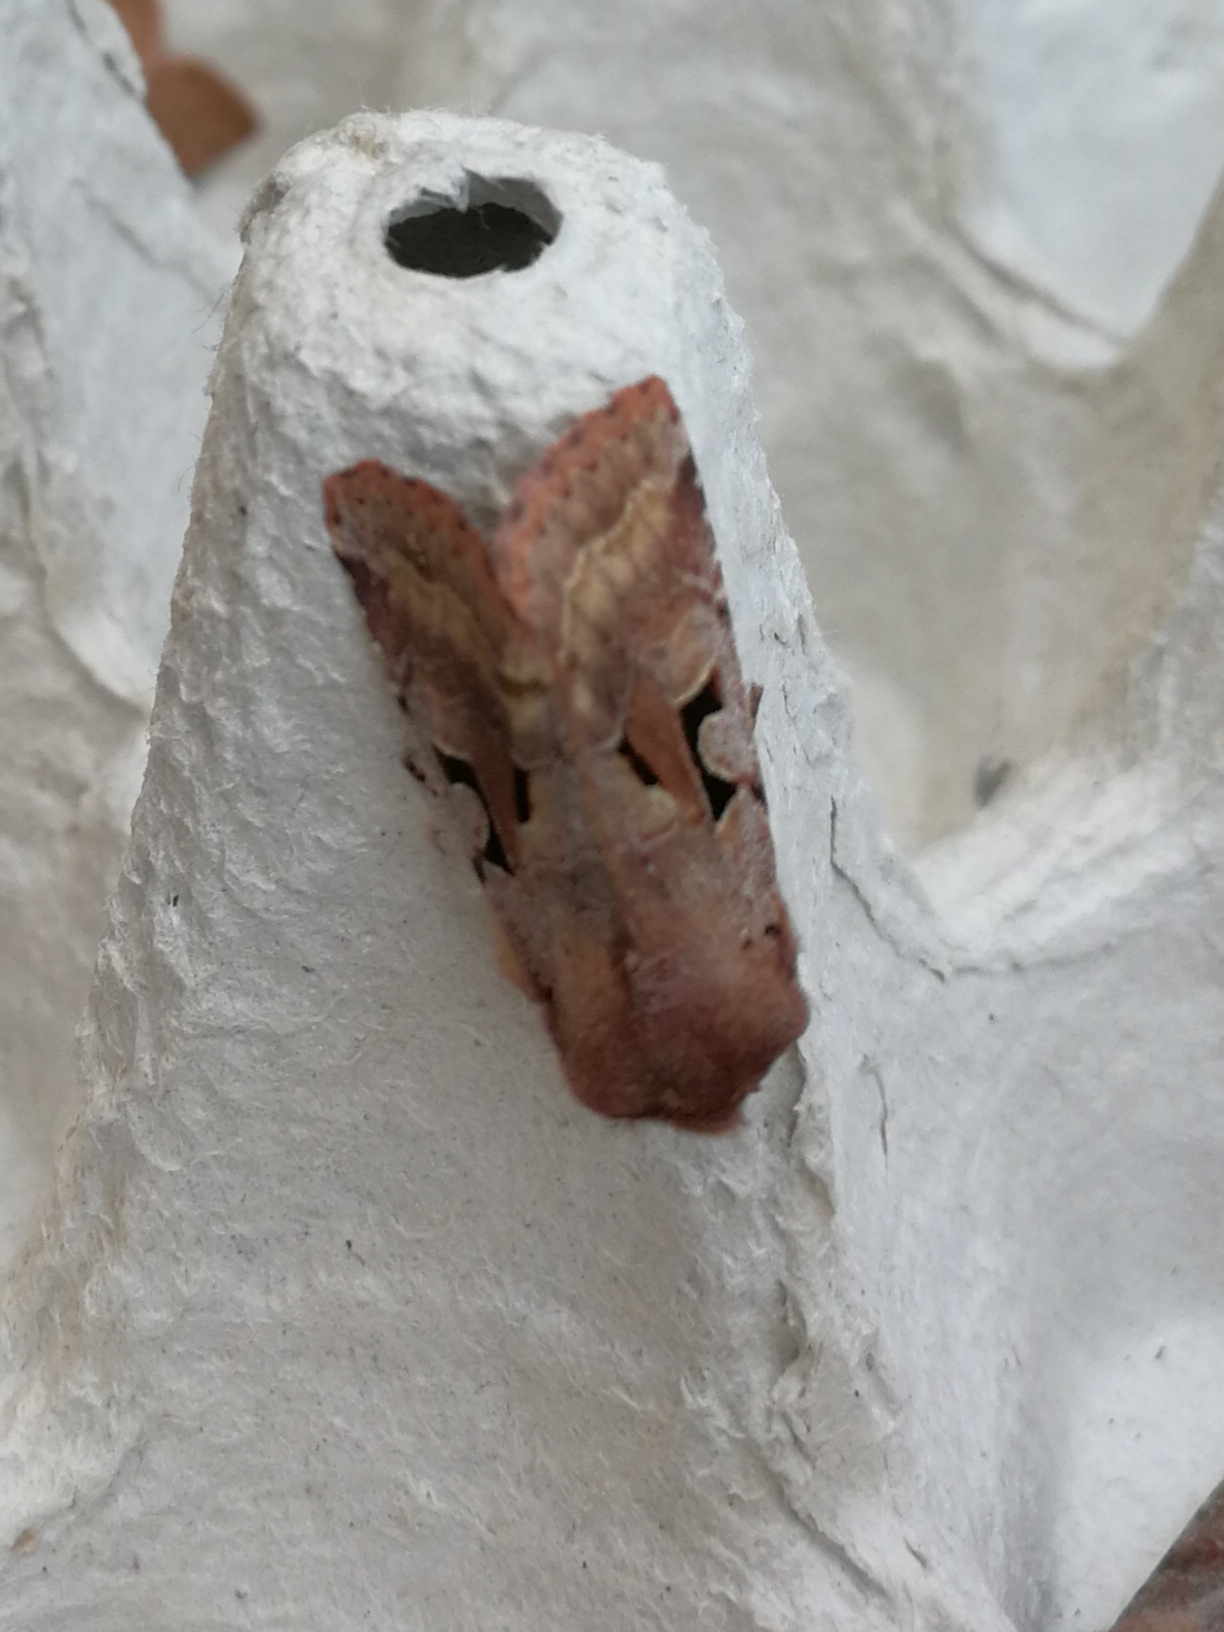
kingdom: Animalia
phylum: Arthropoda
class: Insecta
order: Lepidoptera
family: Noctuidae
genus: Orthosia
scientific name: Orthosia gothica
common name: Hebrew character
